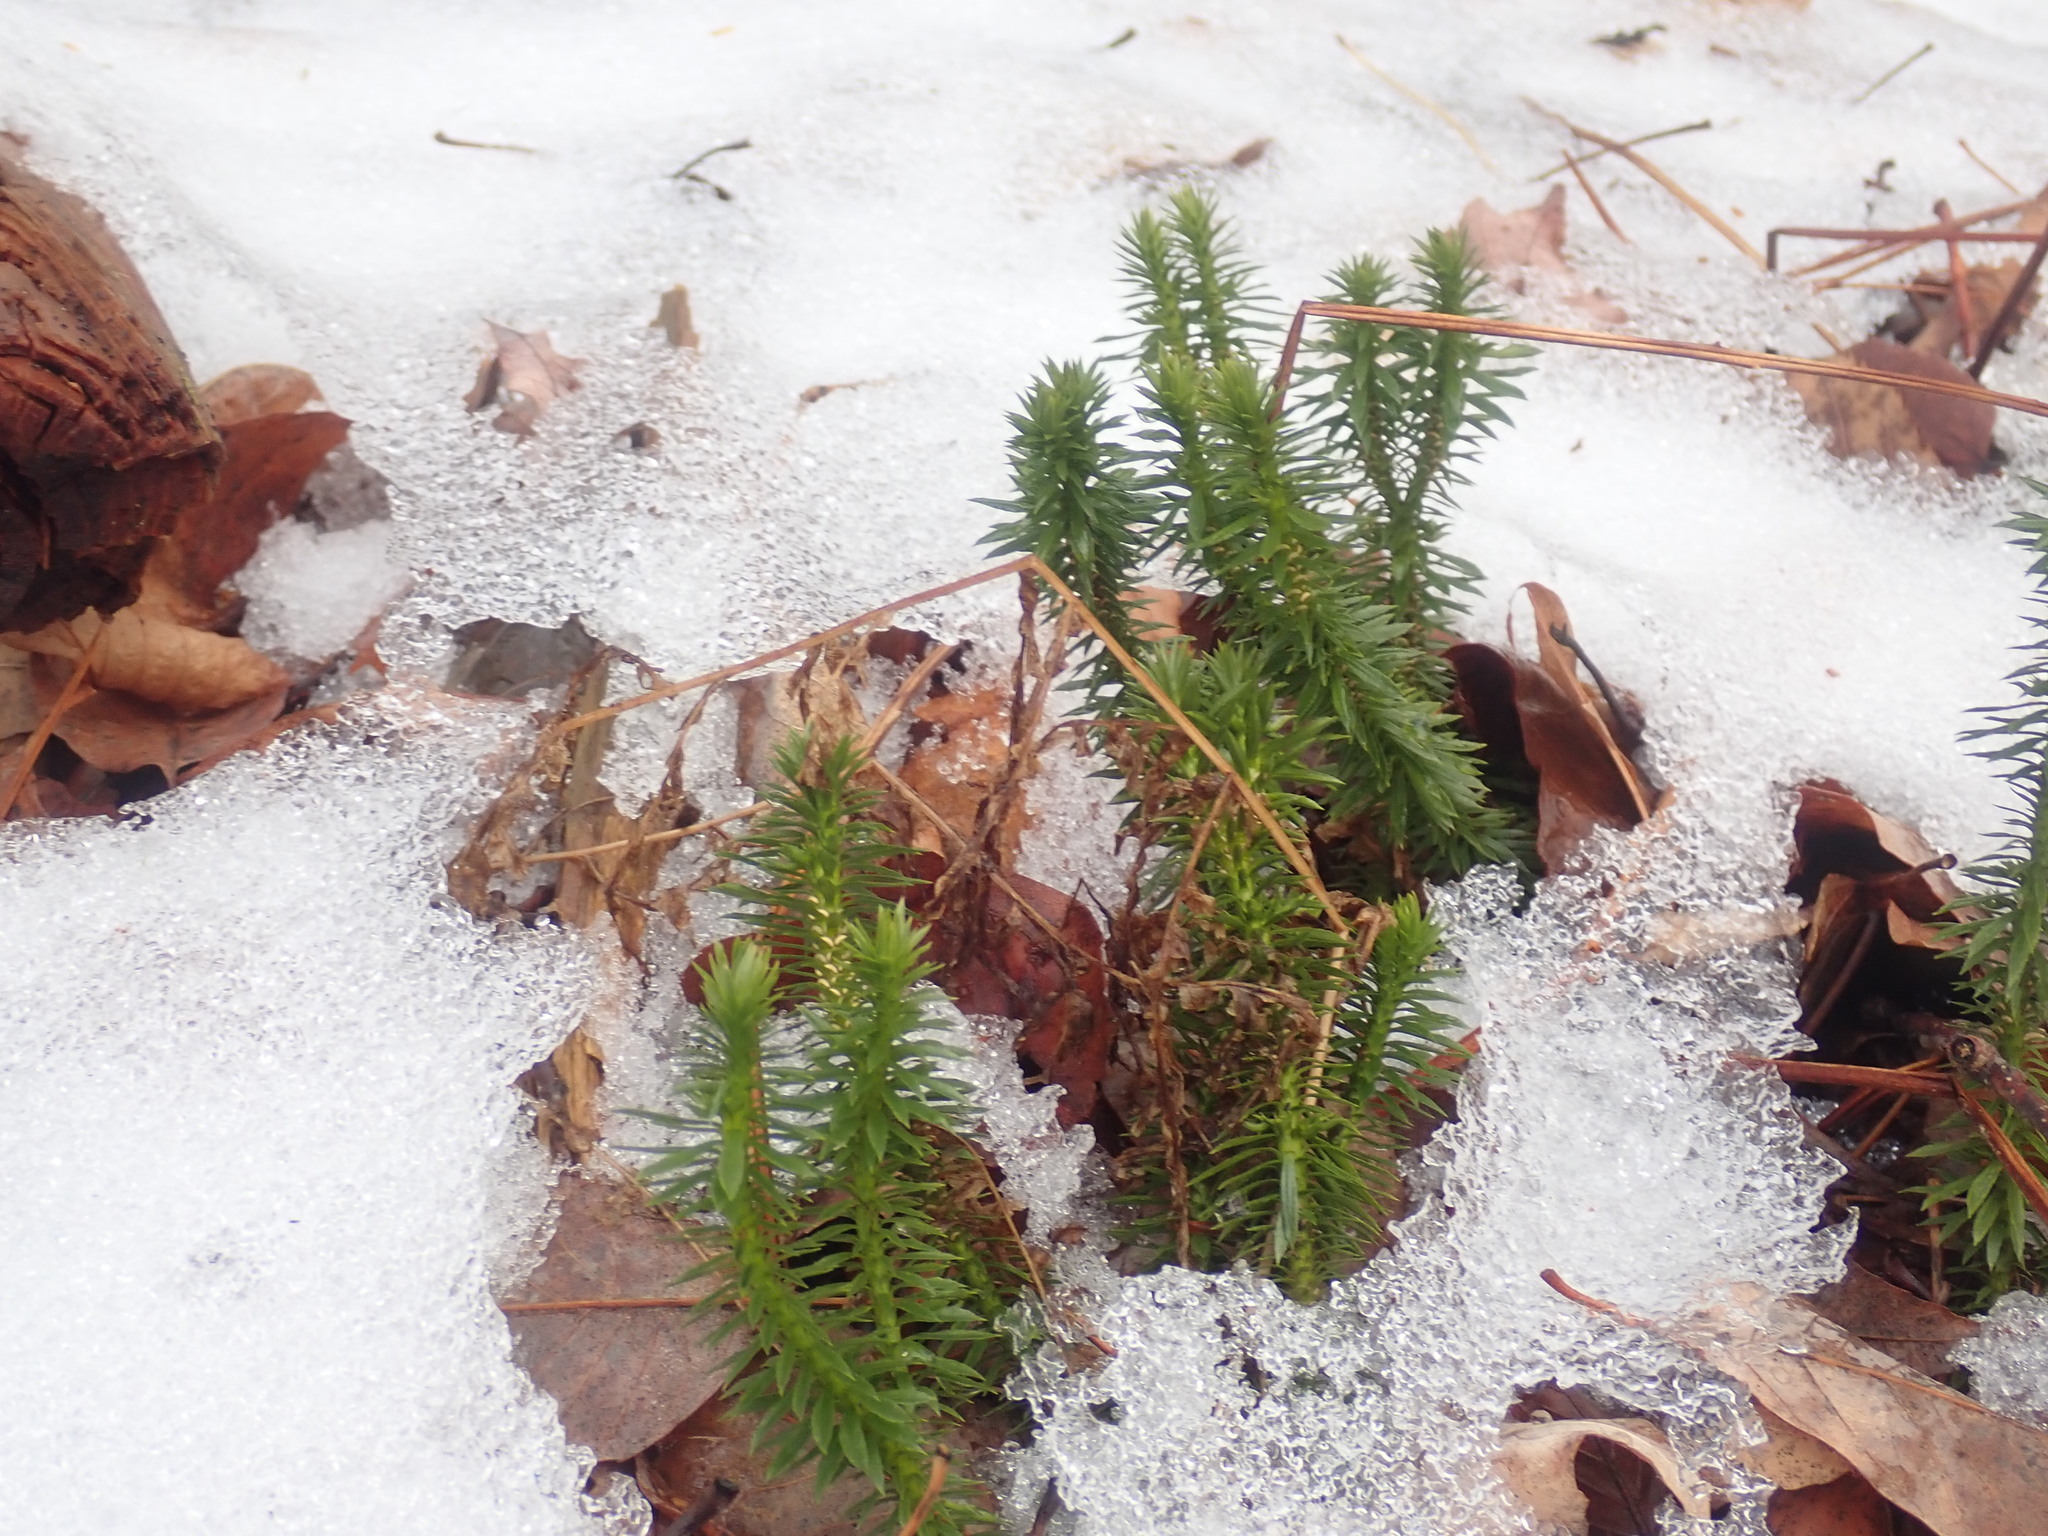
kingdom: Plantae
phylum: Tracheophyta
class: Lycopodiopsida
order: Lycopodiales
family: Lycopodiaceae
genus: Huperzia
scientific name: Huperzia lucidula
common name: Shining clubmoss
